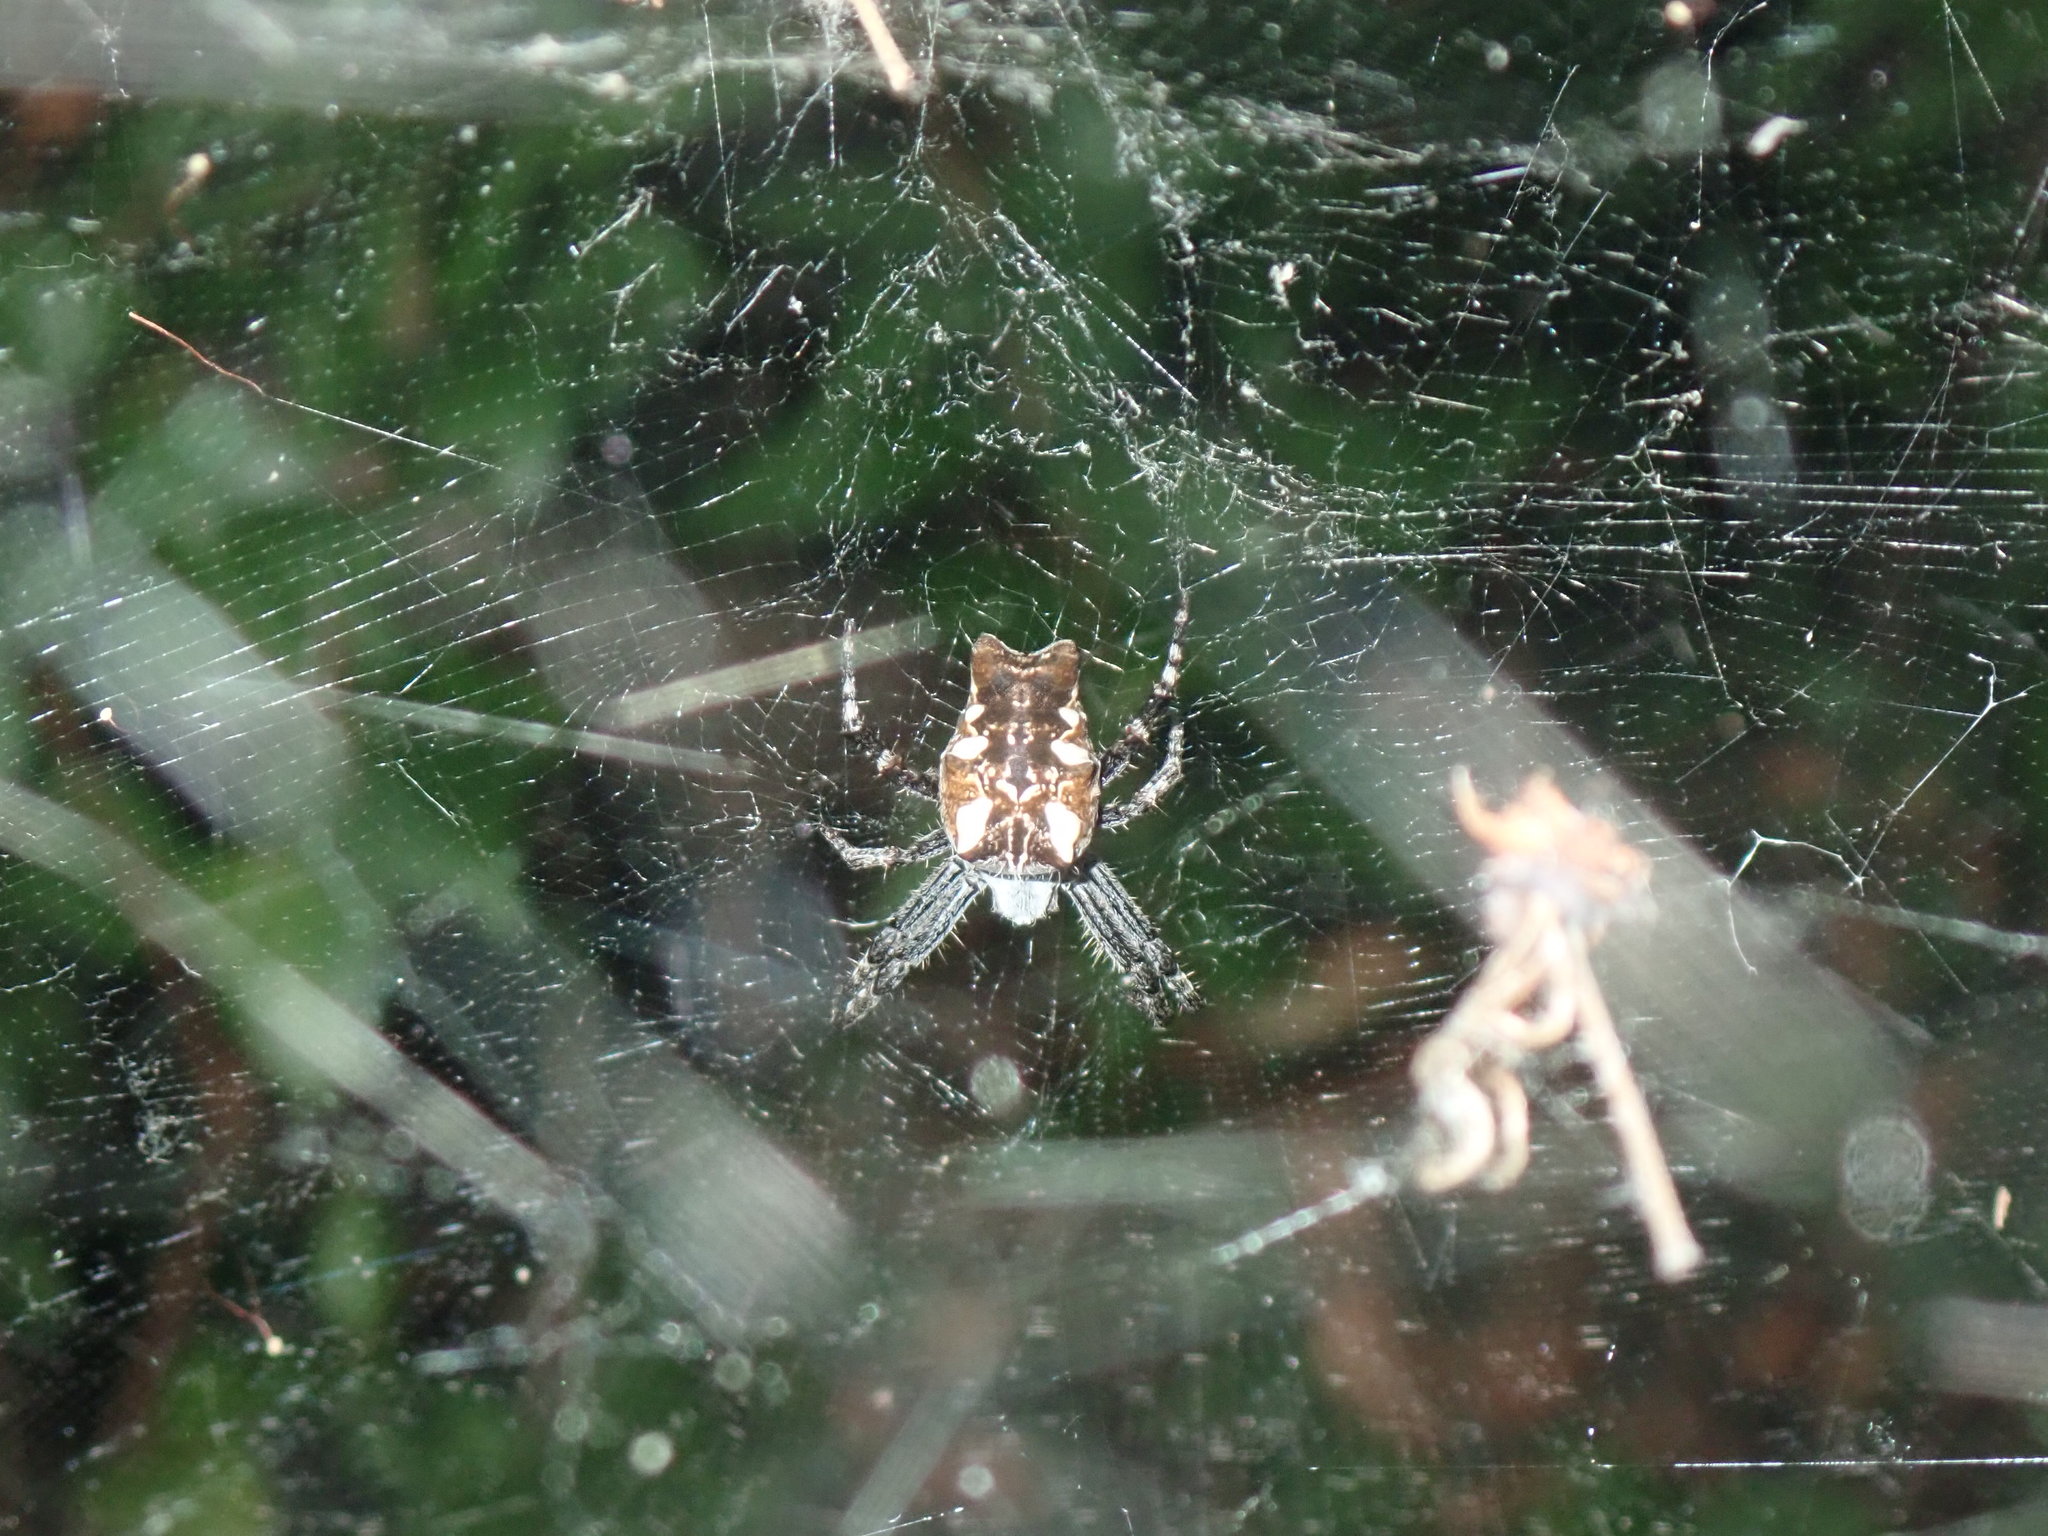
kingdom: Animalia
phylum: Arthropoda
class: Arachnida
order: Araneae
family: Araneidae
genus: Cyrtophora
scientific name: Cyrtophora citricola
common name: Orb weavers
